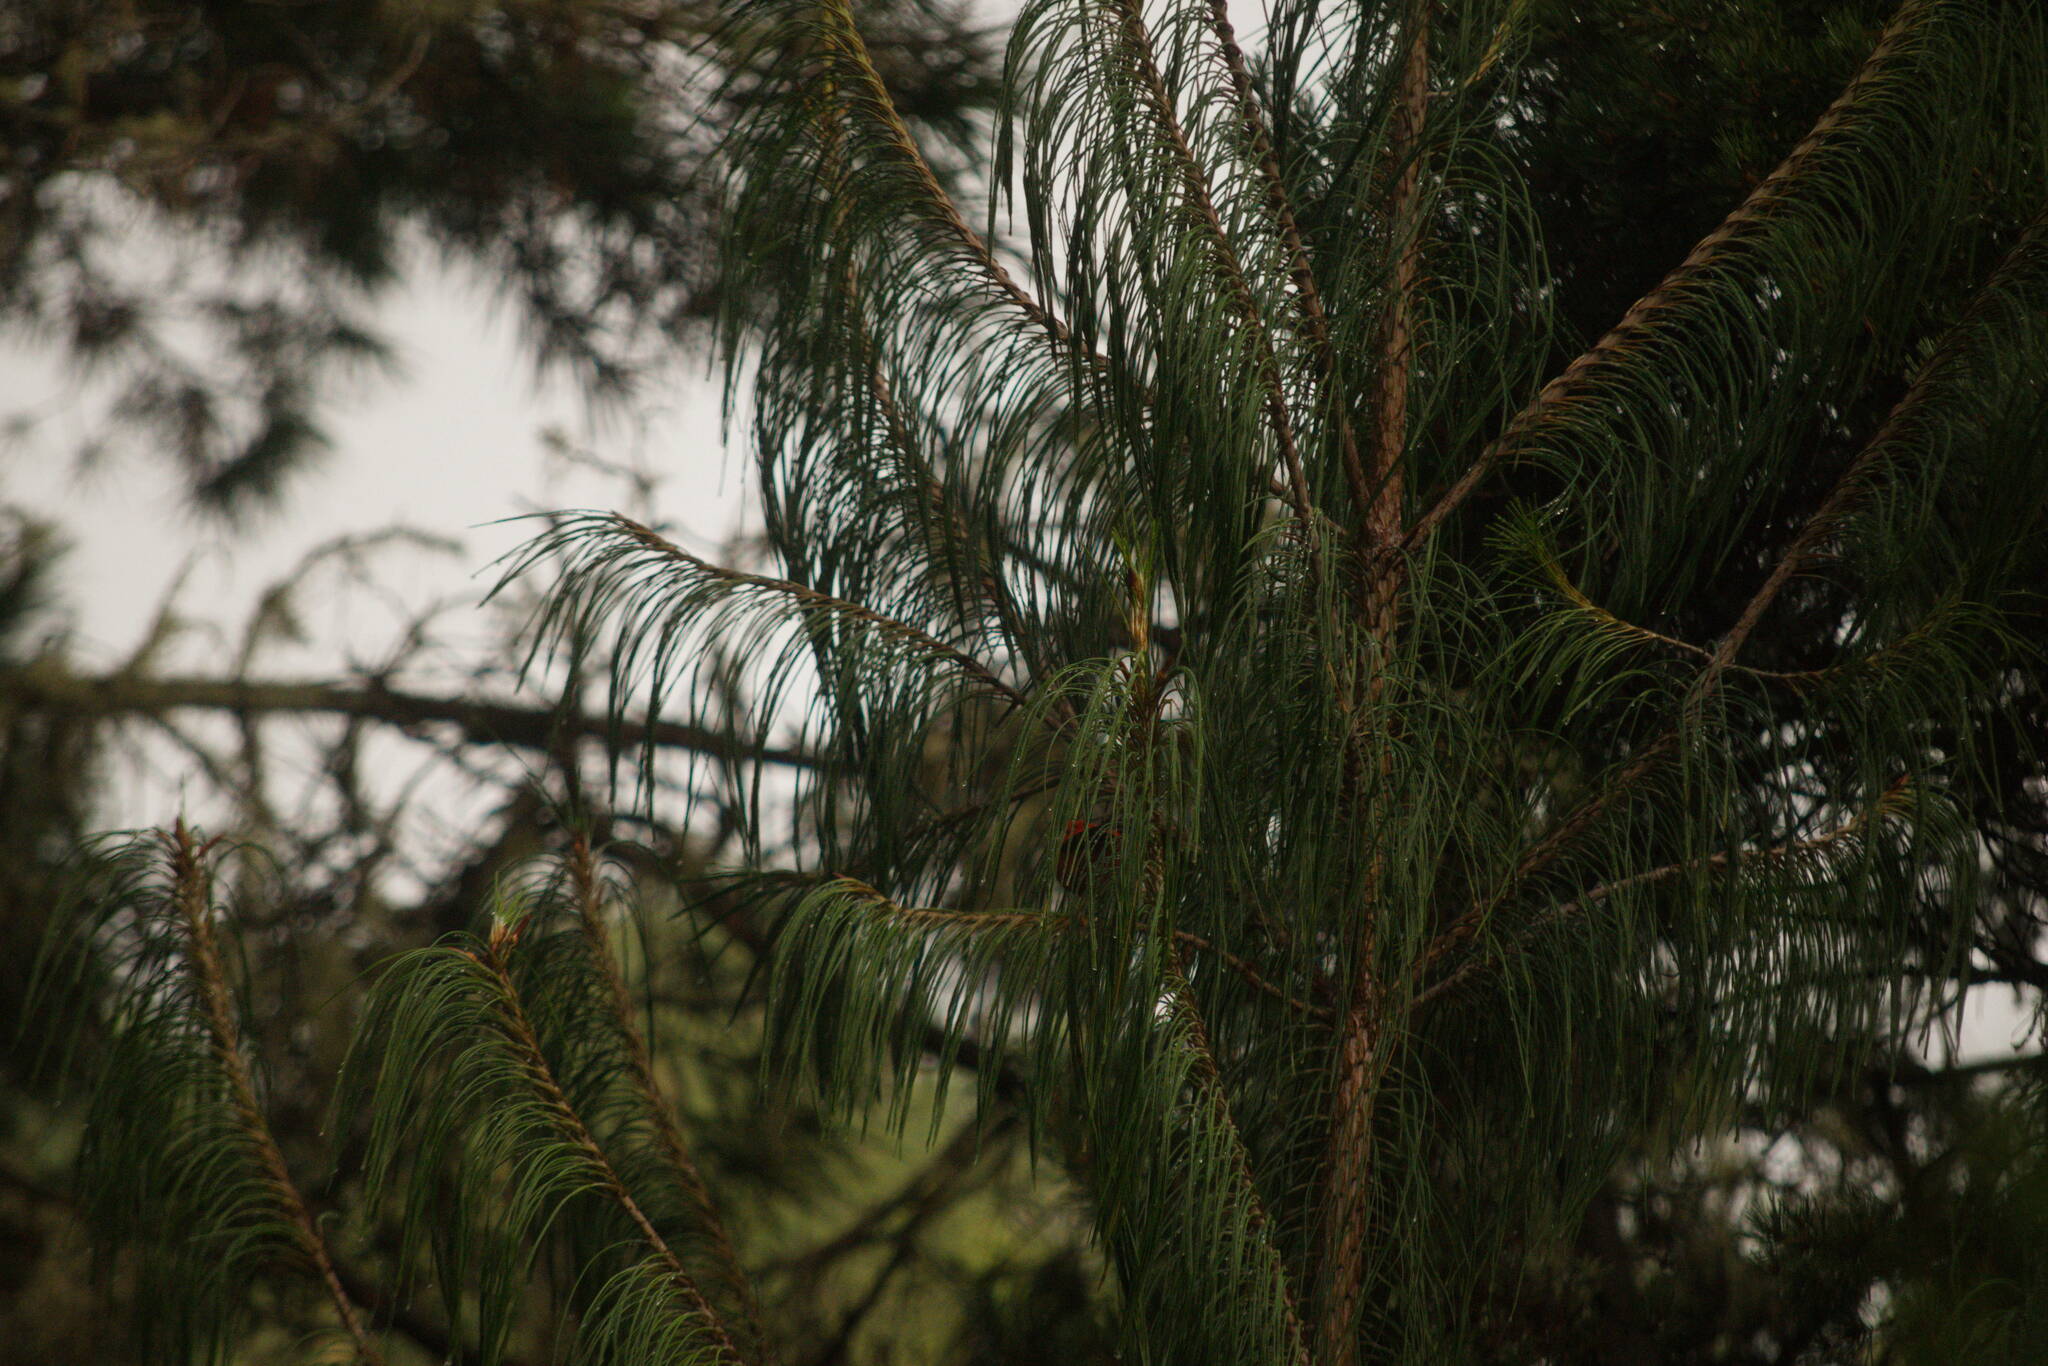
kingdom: Animalia
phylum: Chordata
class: Aves
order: Passeriformes
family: Fringillidae
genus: Vestiaria
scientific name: Vestiaria coccinea
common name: Iiwi
